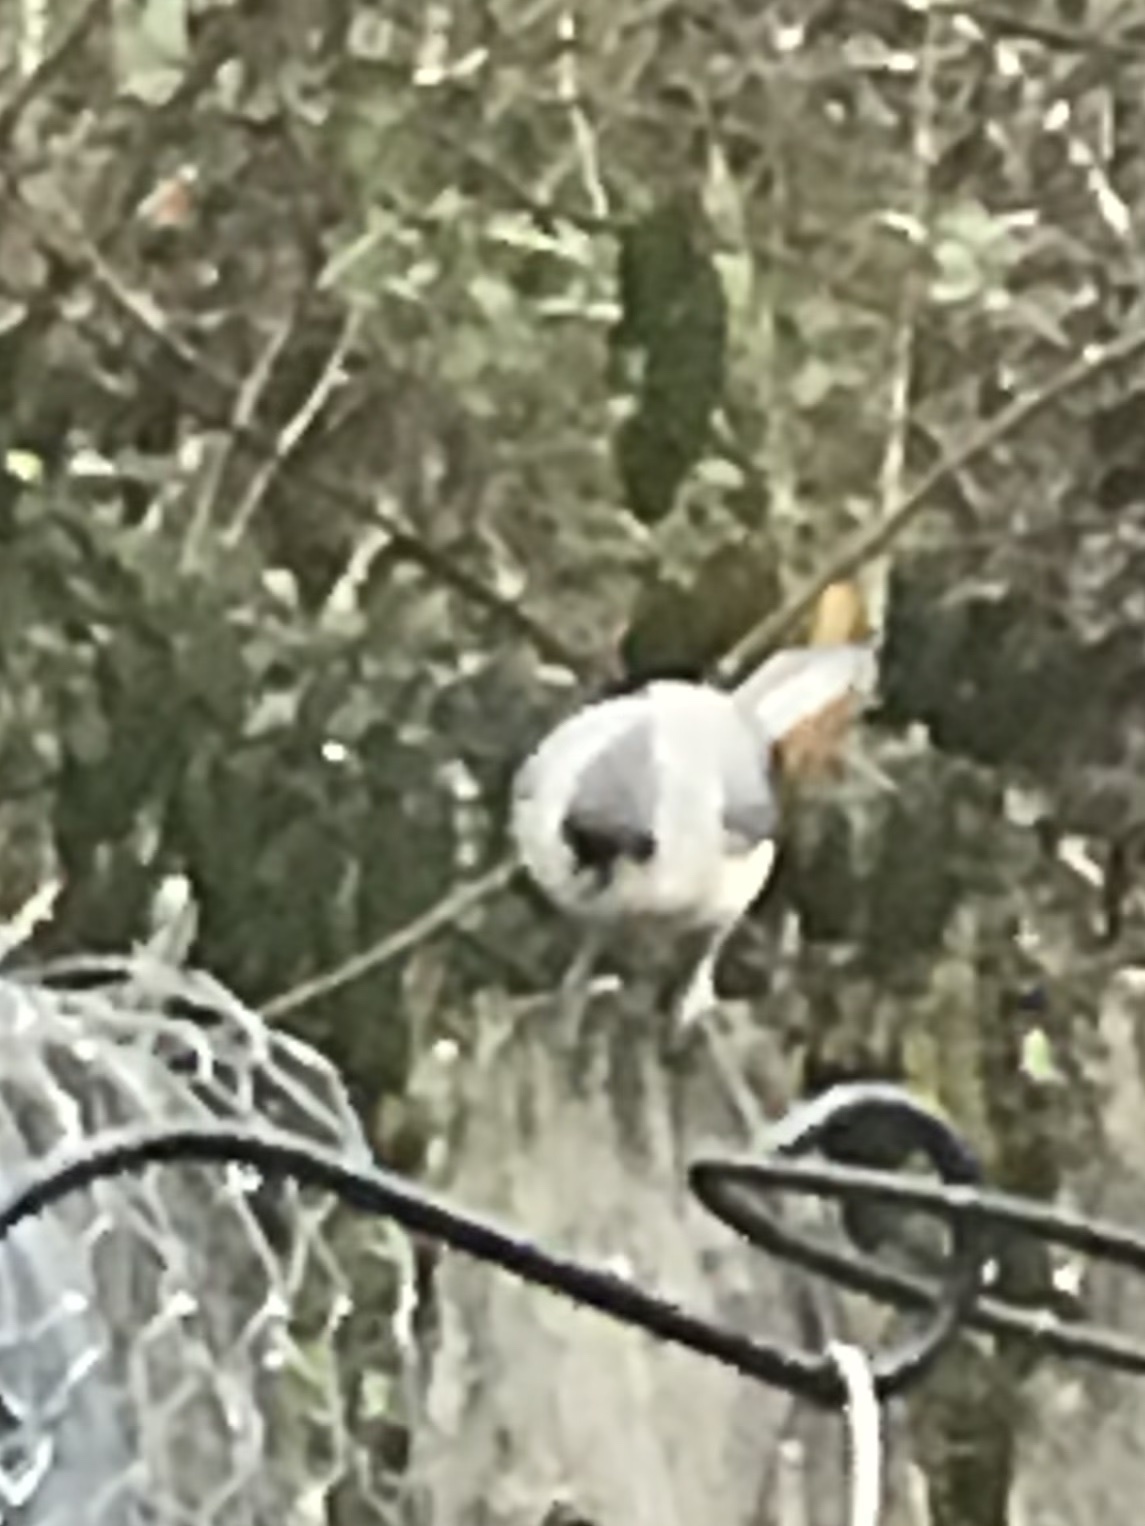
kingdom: Animalia
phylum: Chordata
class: Aves
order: Passeriformes
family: Paridae
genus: Baeolophus
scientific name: Baeolophus bicolor
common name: Tufted titmouse
